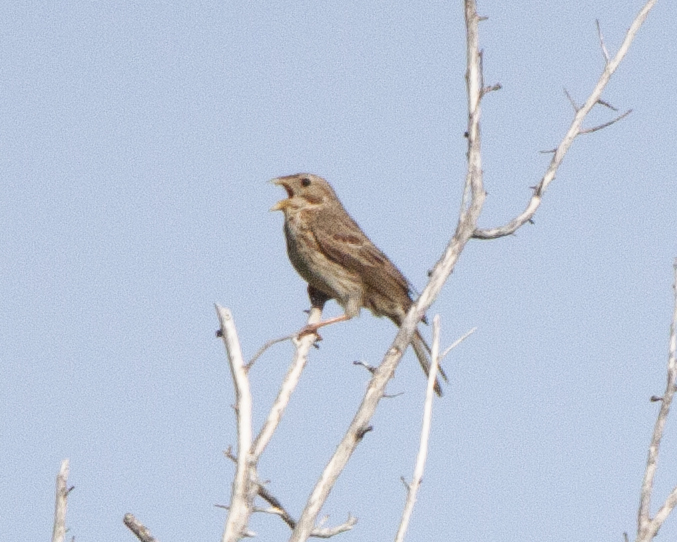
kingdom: Animalia
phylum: Chordata
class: Aves
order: Passeriformes
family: Emberizidae
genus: Emberiza
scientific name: Emberiza calandra
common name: Corn bunting
